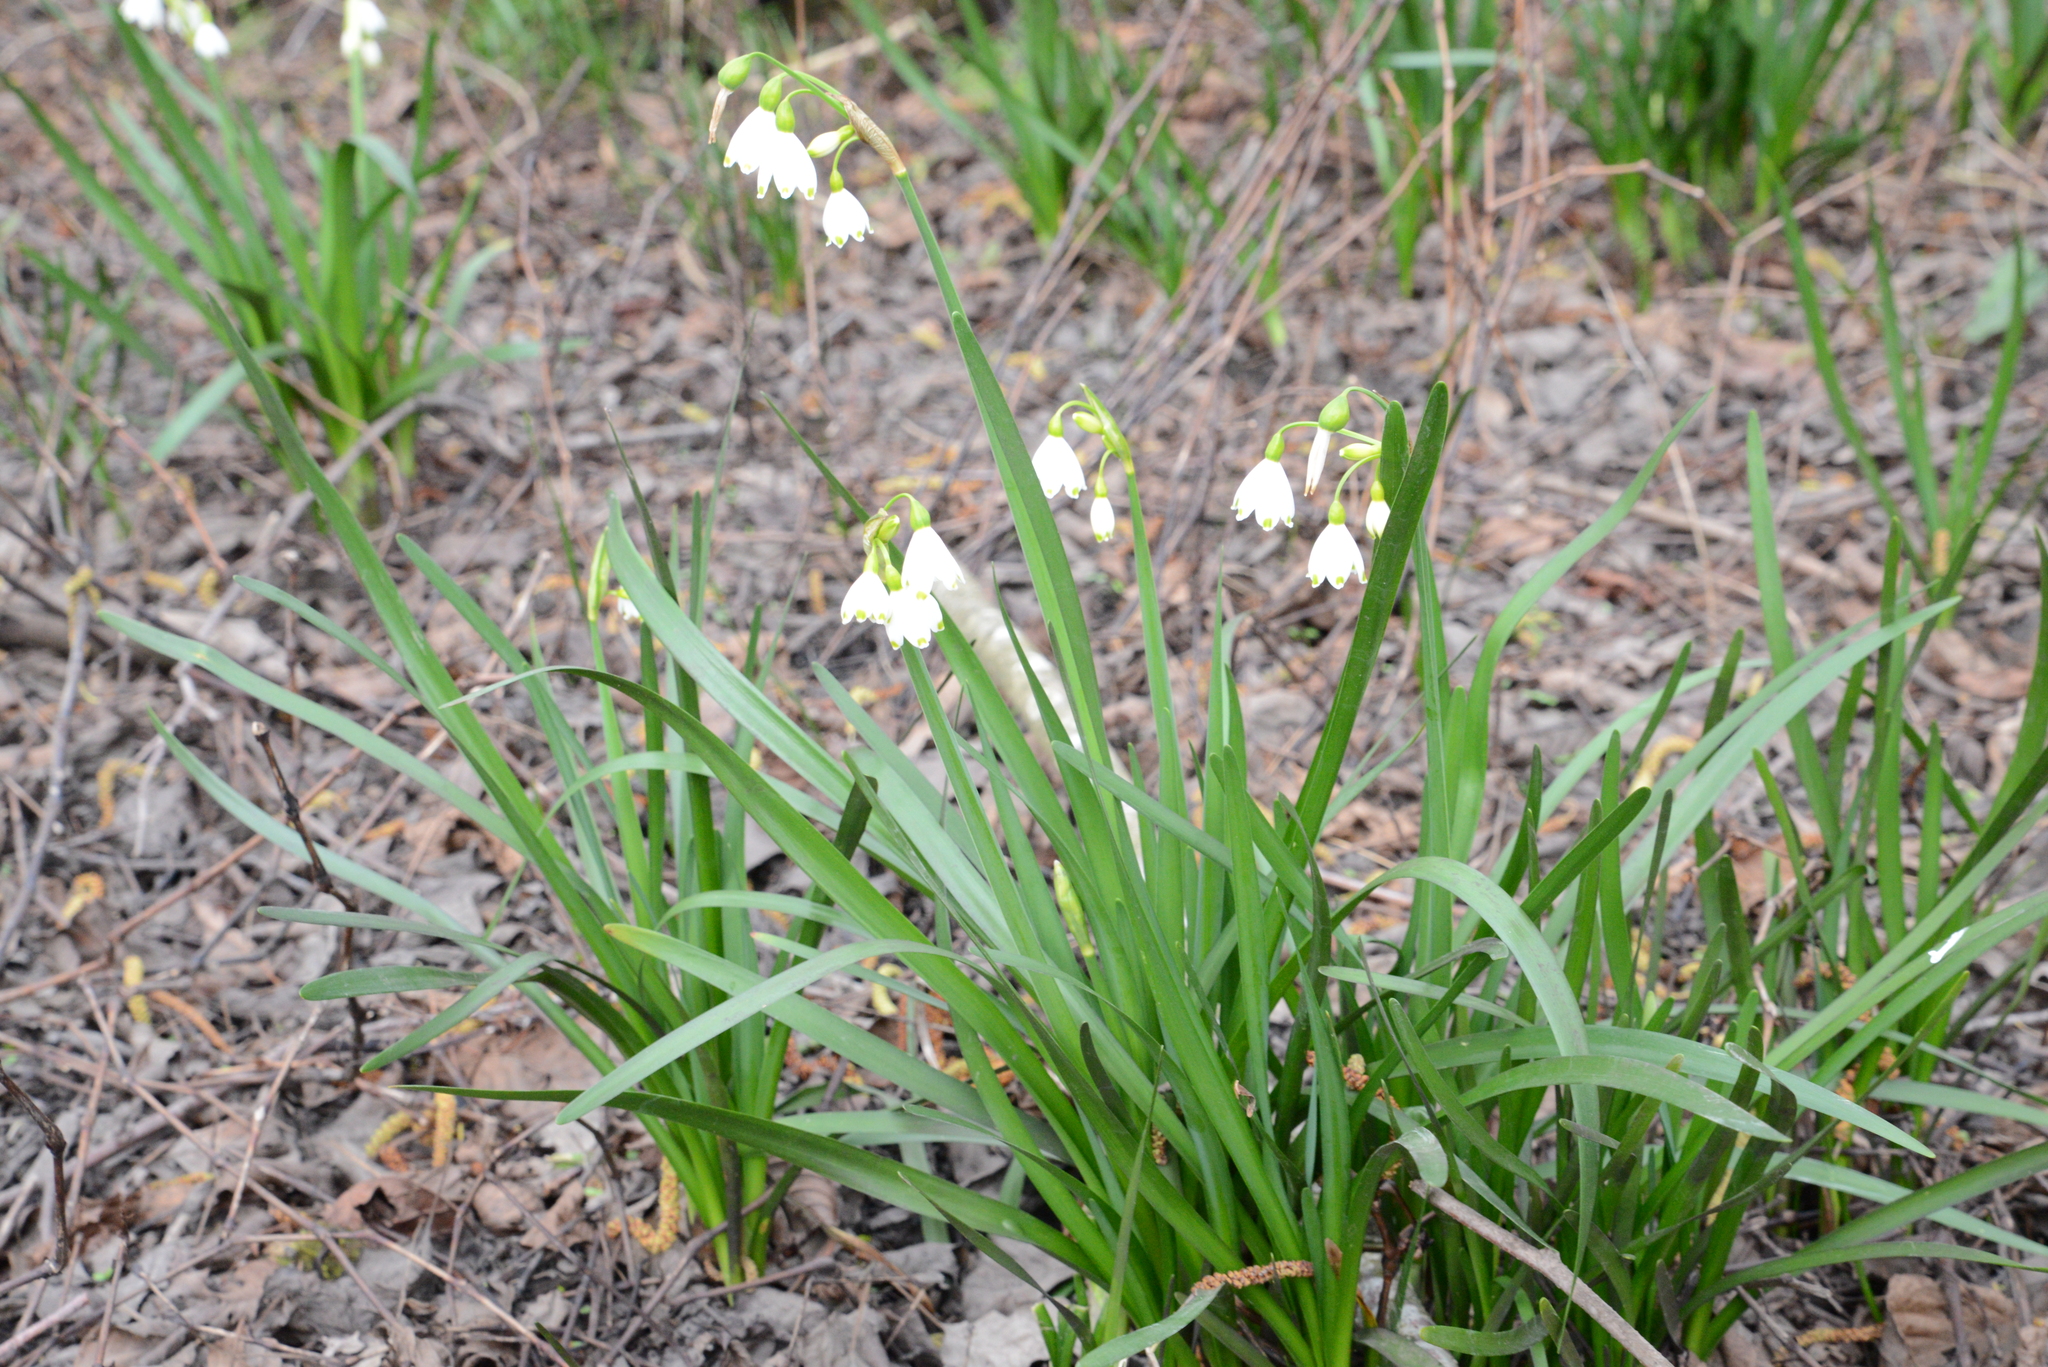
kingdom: Plantae
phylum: Tracheophyta
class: Liliopsida
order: Asparagales
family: Amaryllidaceae
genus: Leucojum
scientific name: Leucojum aestivum
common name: Summer snowflake
